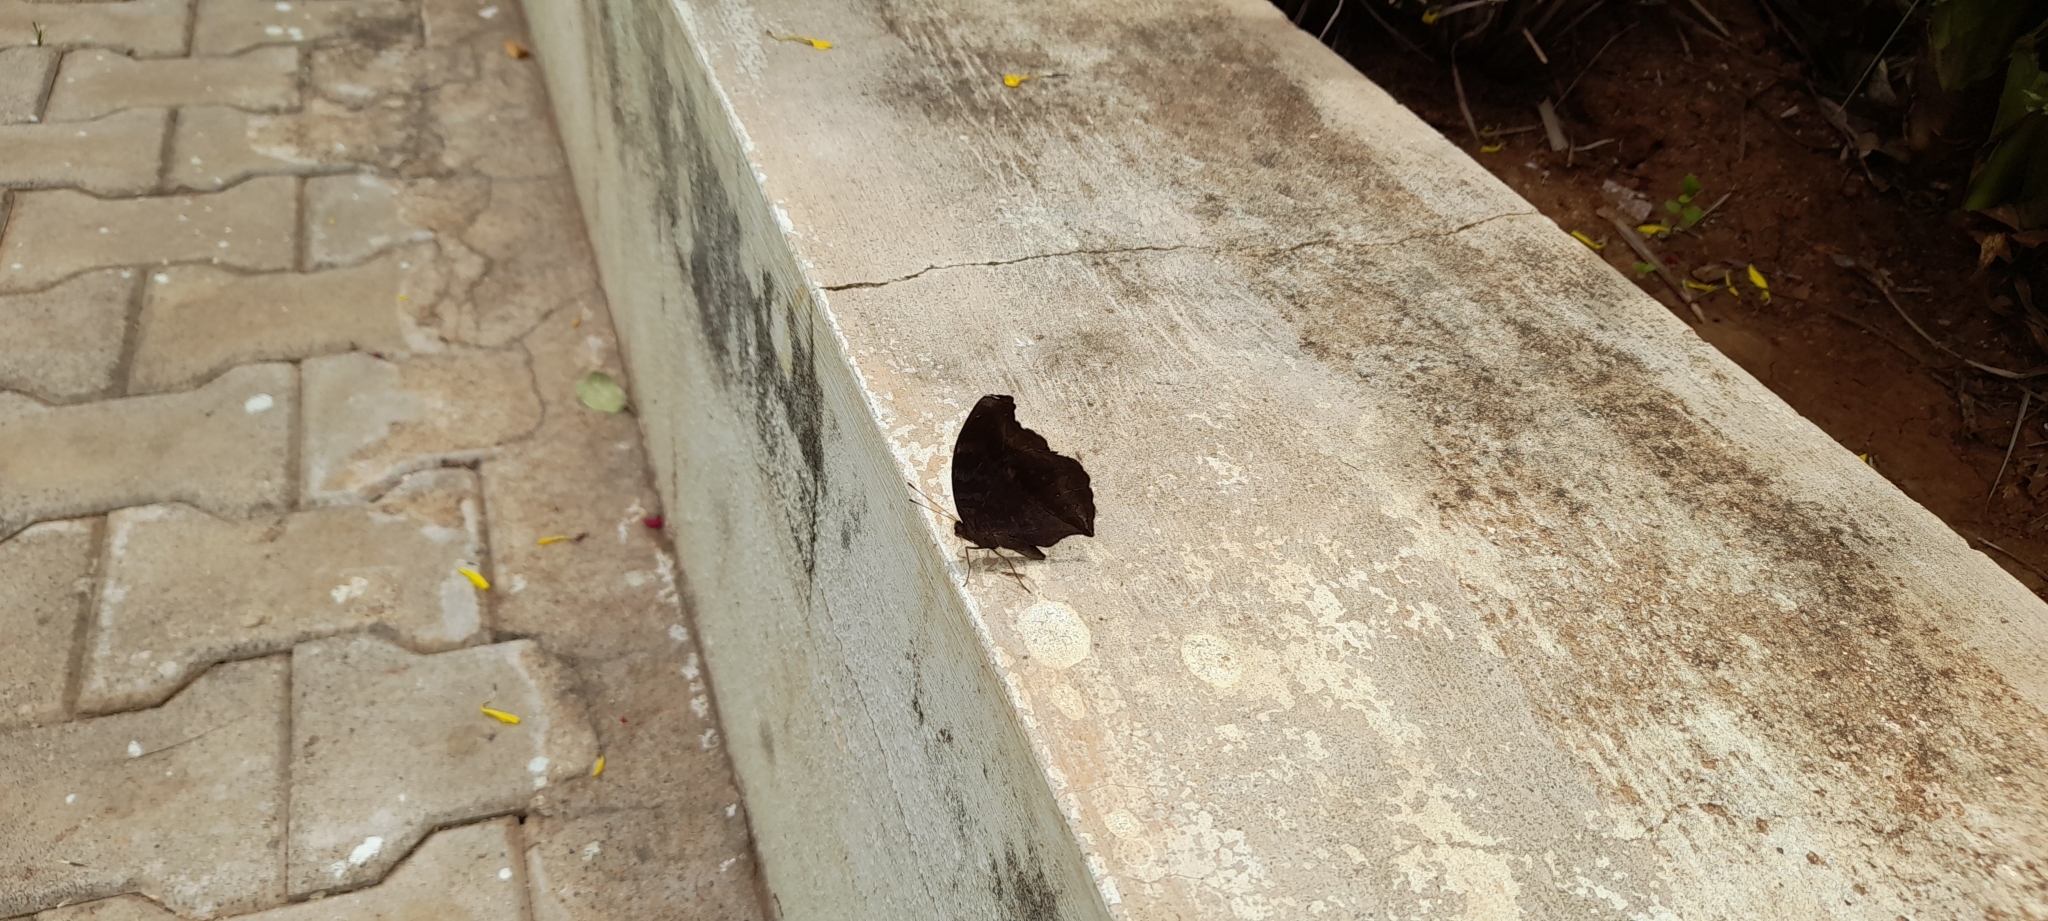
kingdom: Animalia
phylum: Arthropoda
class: Insecta
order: Lepidoptera
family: Nymphalidae
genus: Junonia
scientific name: Junonia iphita
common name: Chocolate pansy
